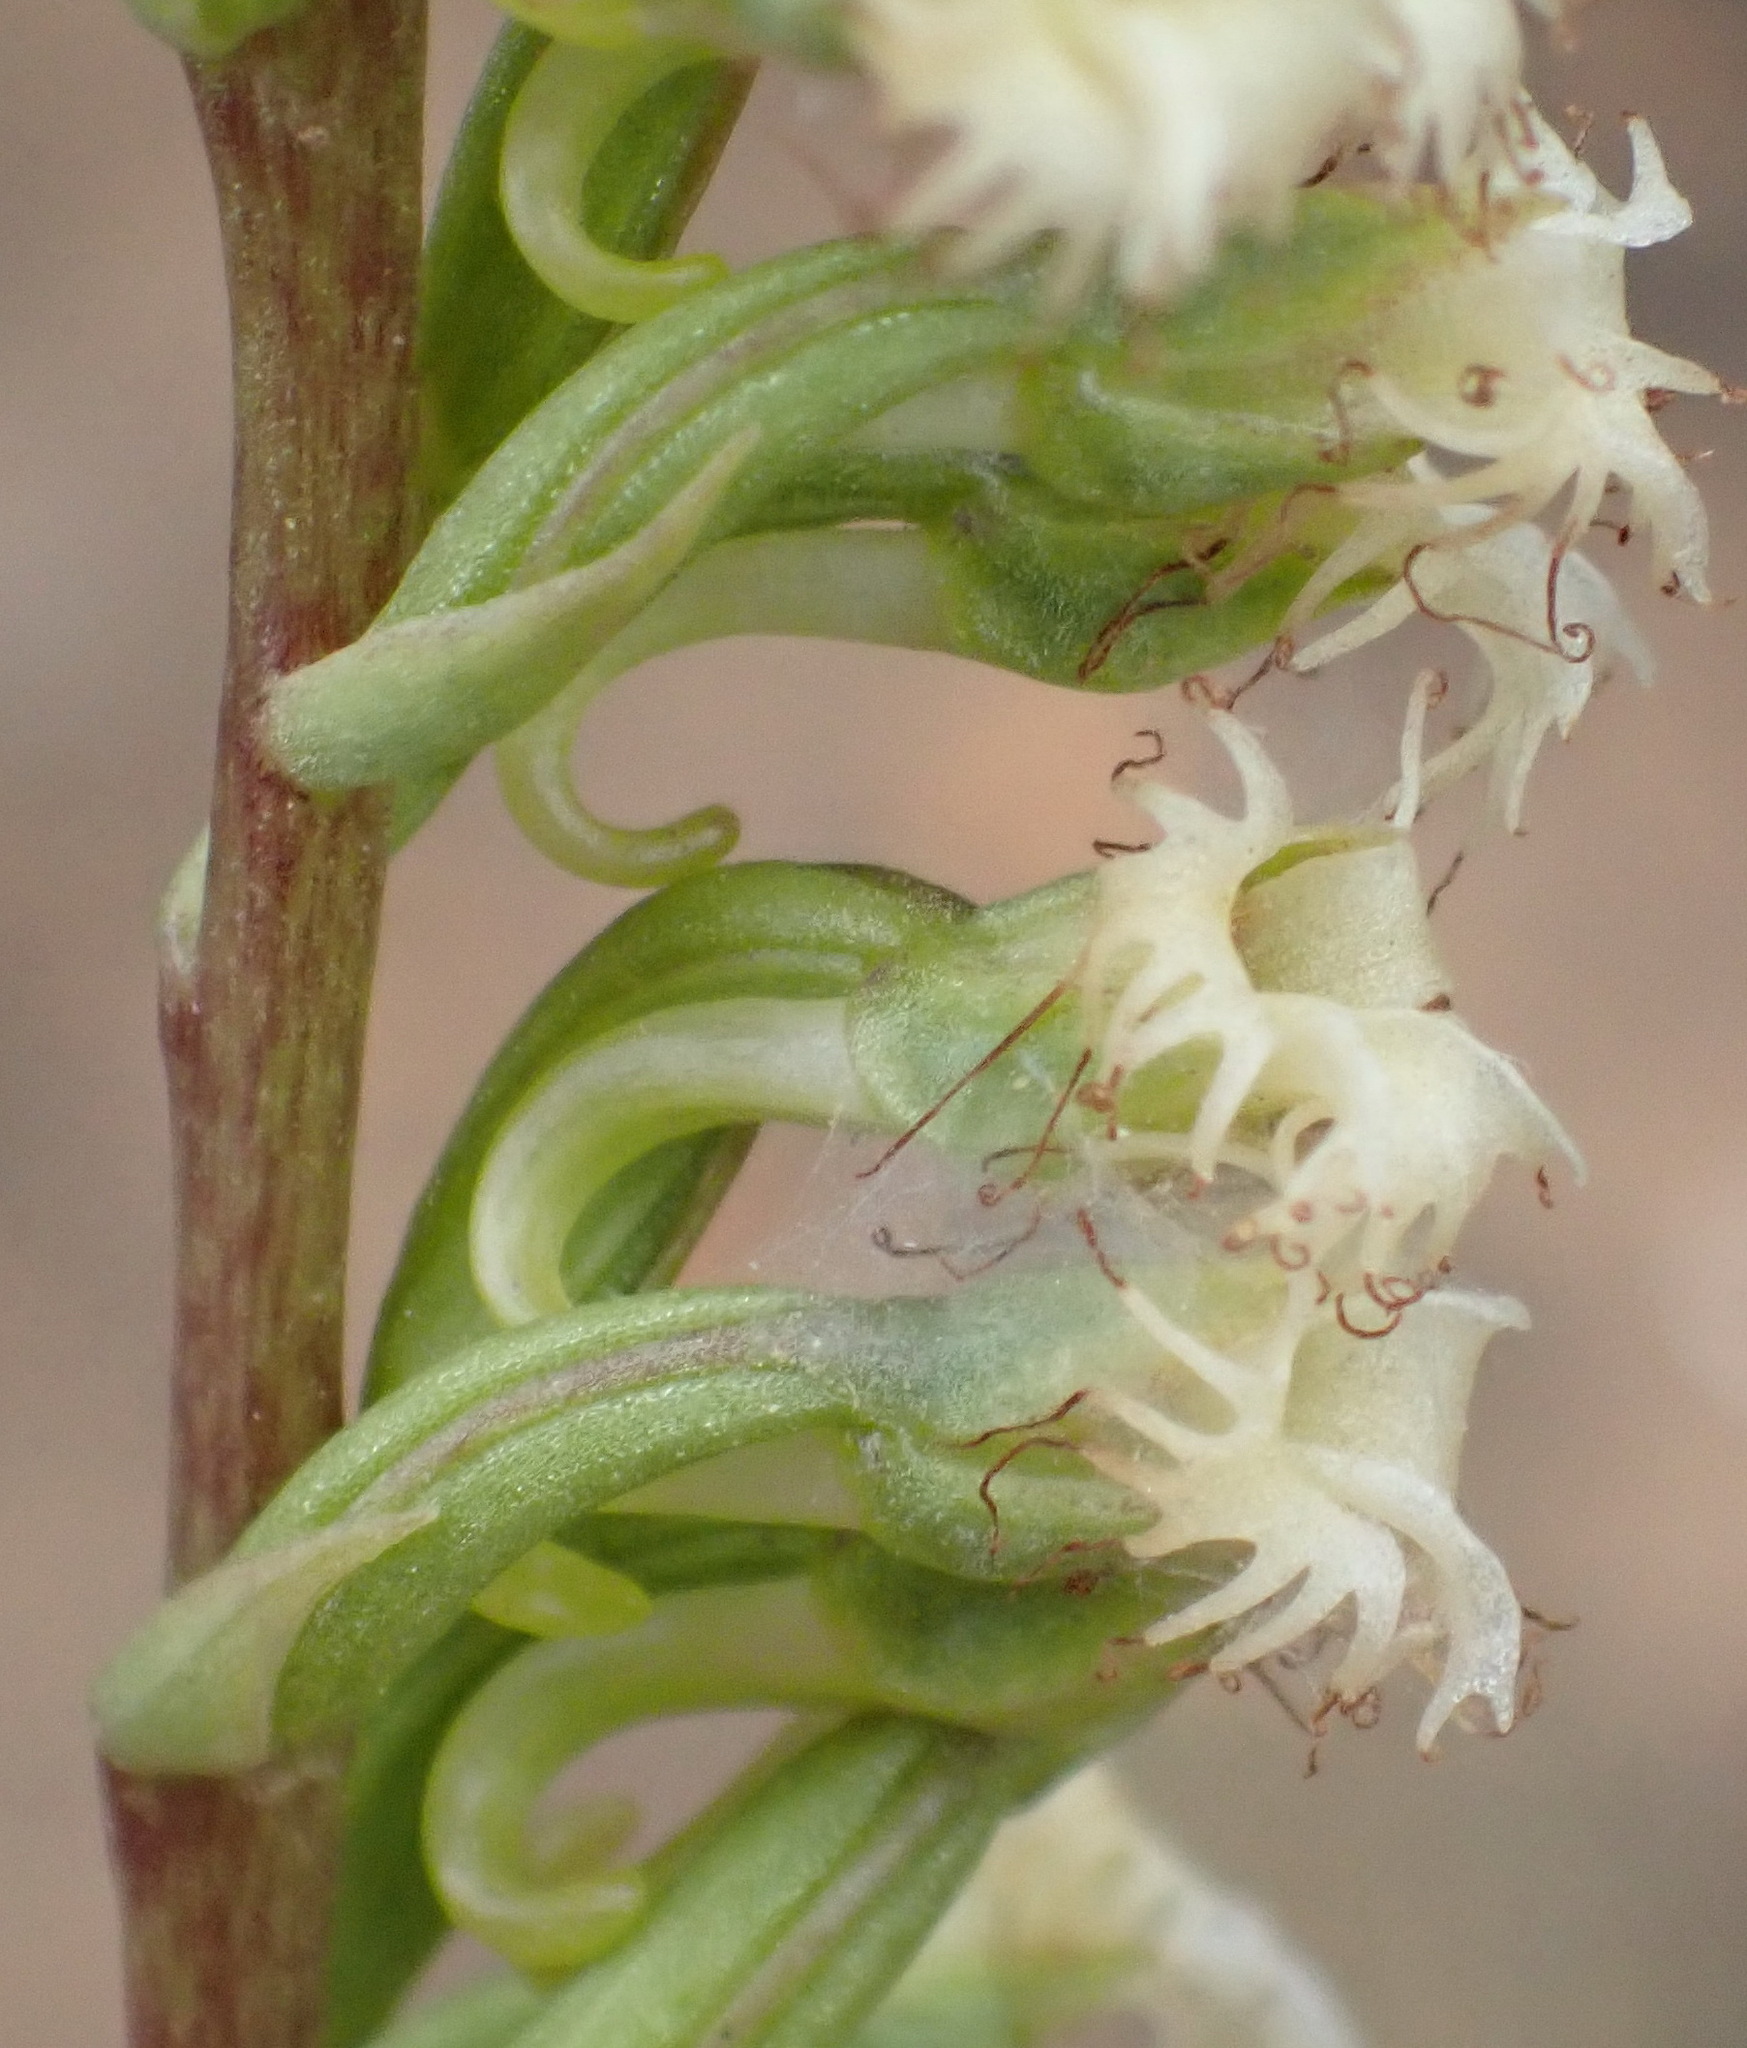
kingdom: Plantae
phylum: Tracheophyta
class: Liliopsida
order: Asparagales
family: Orchidaceae
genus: Holothrix
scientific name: Holothrix burchellii
